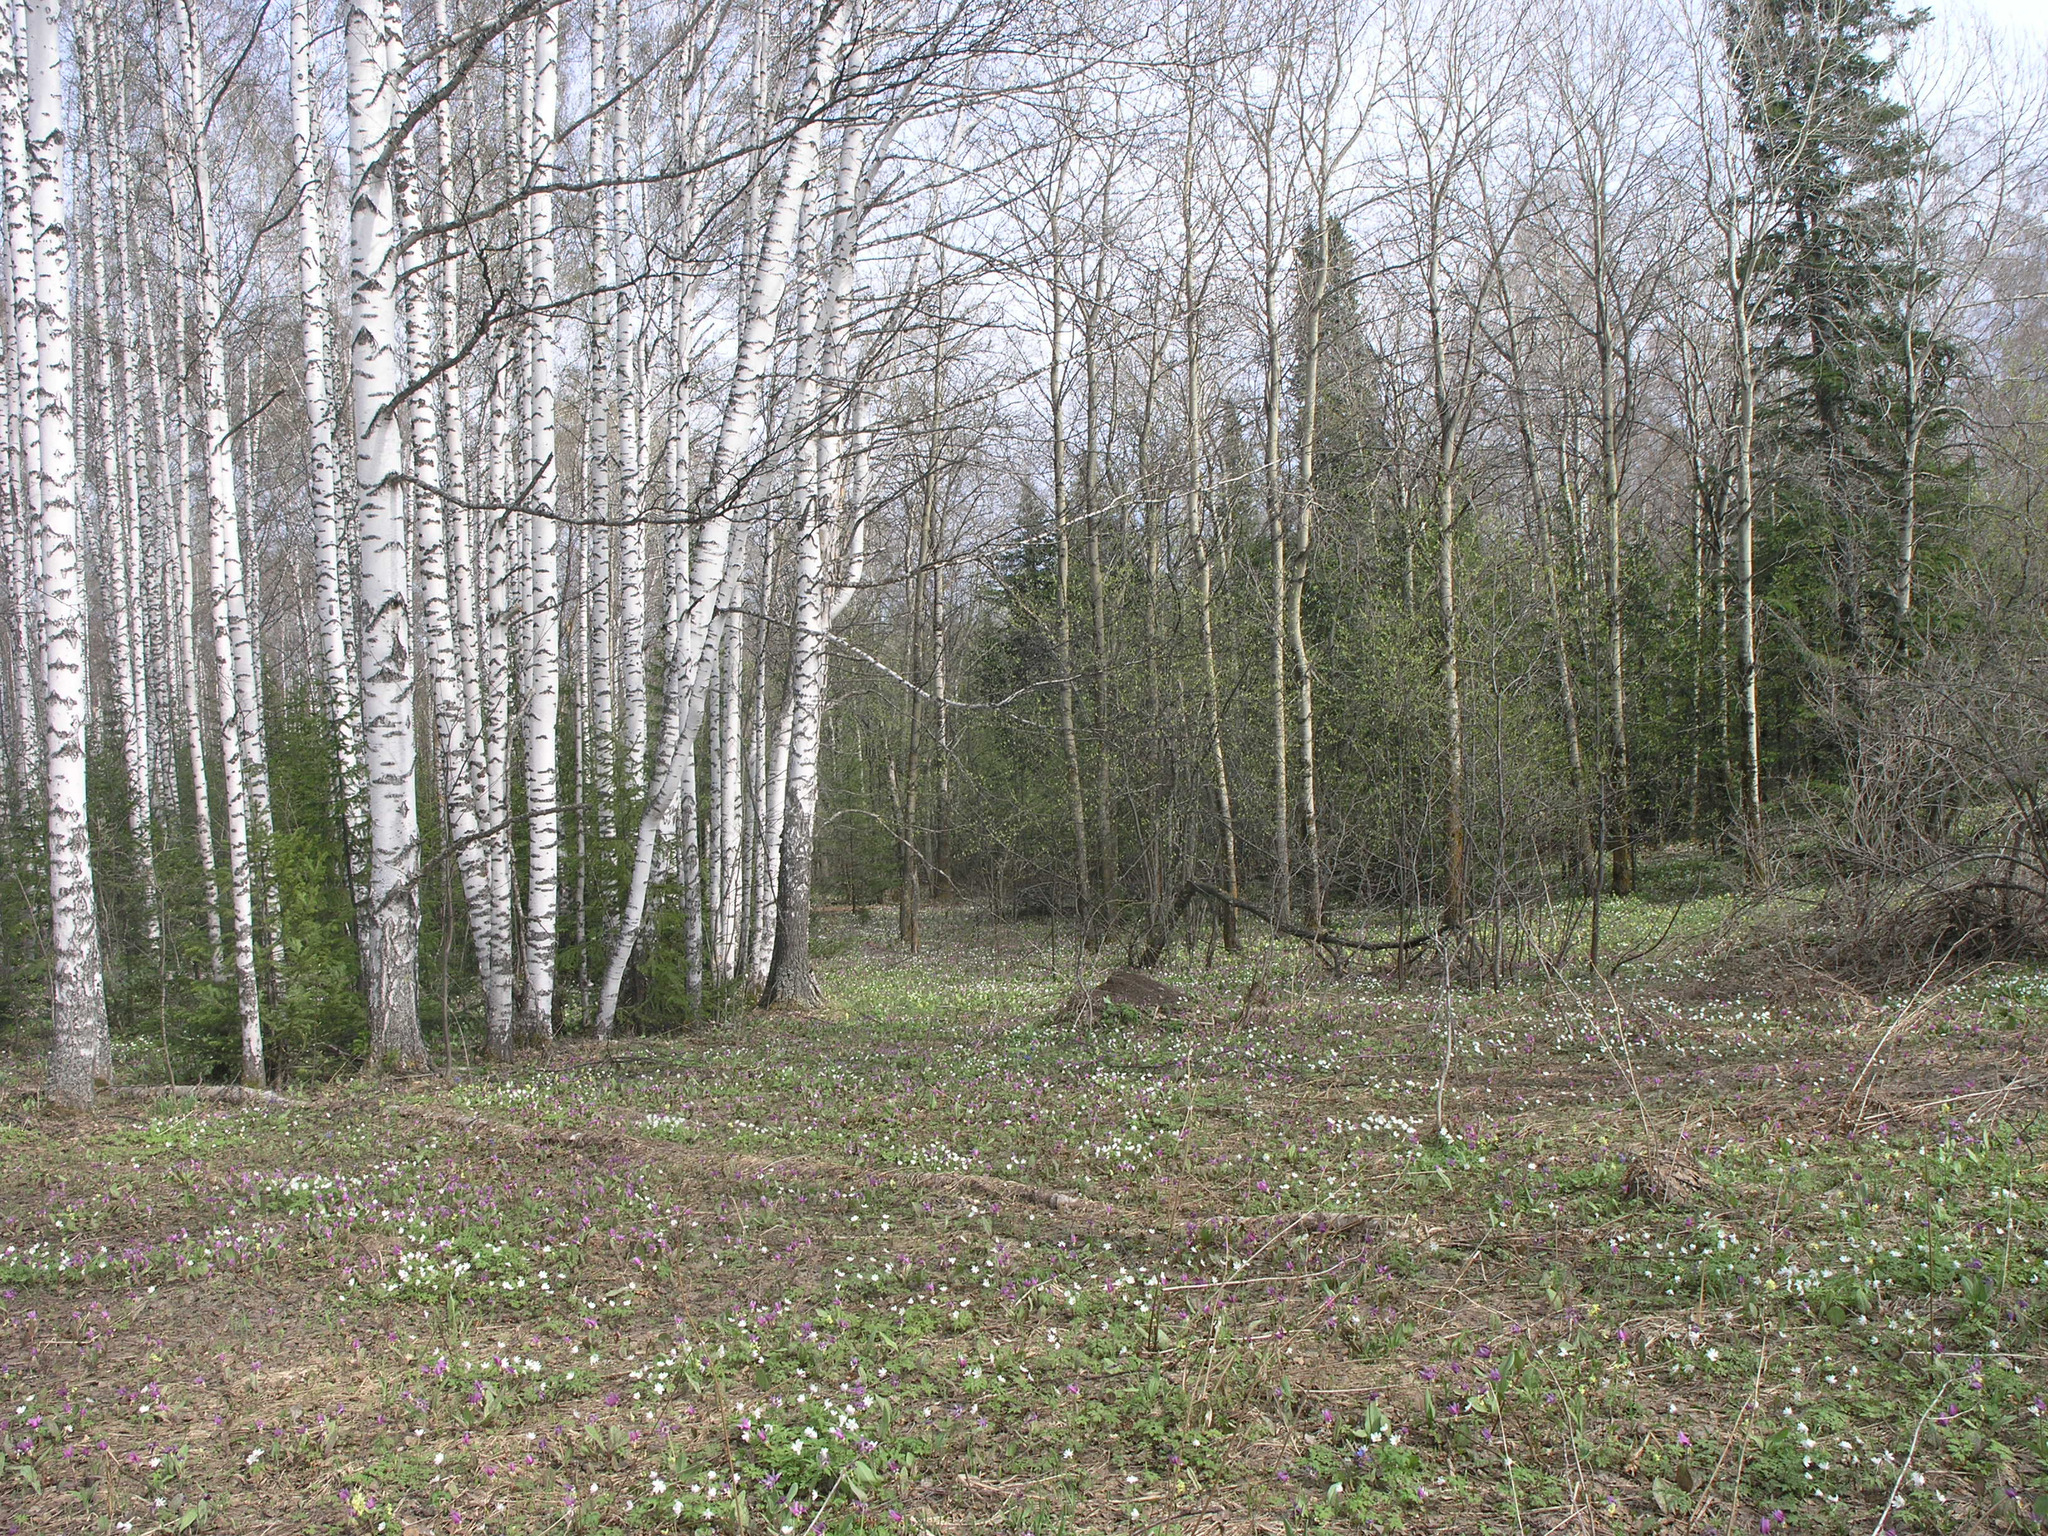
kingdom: Plantae
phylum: Tracheophyta
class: Pinopsida
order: Pinales
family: Pinaceae
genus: Abies
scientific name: Abies sibirica
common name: Siberian fir
